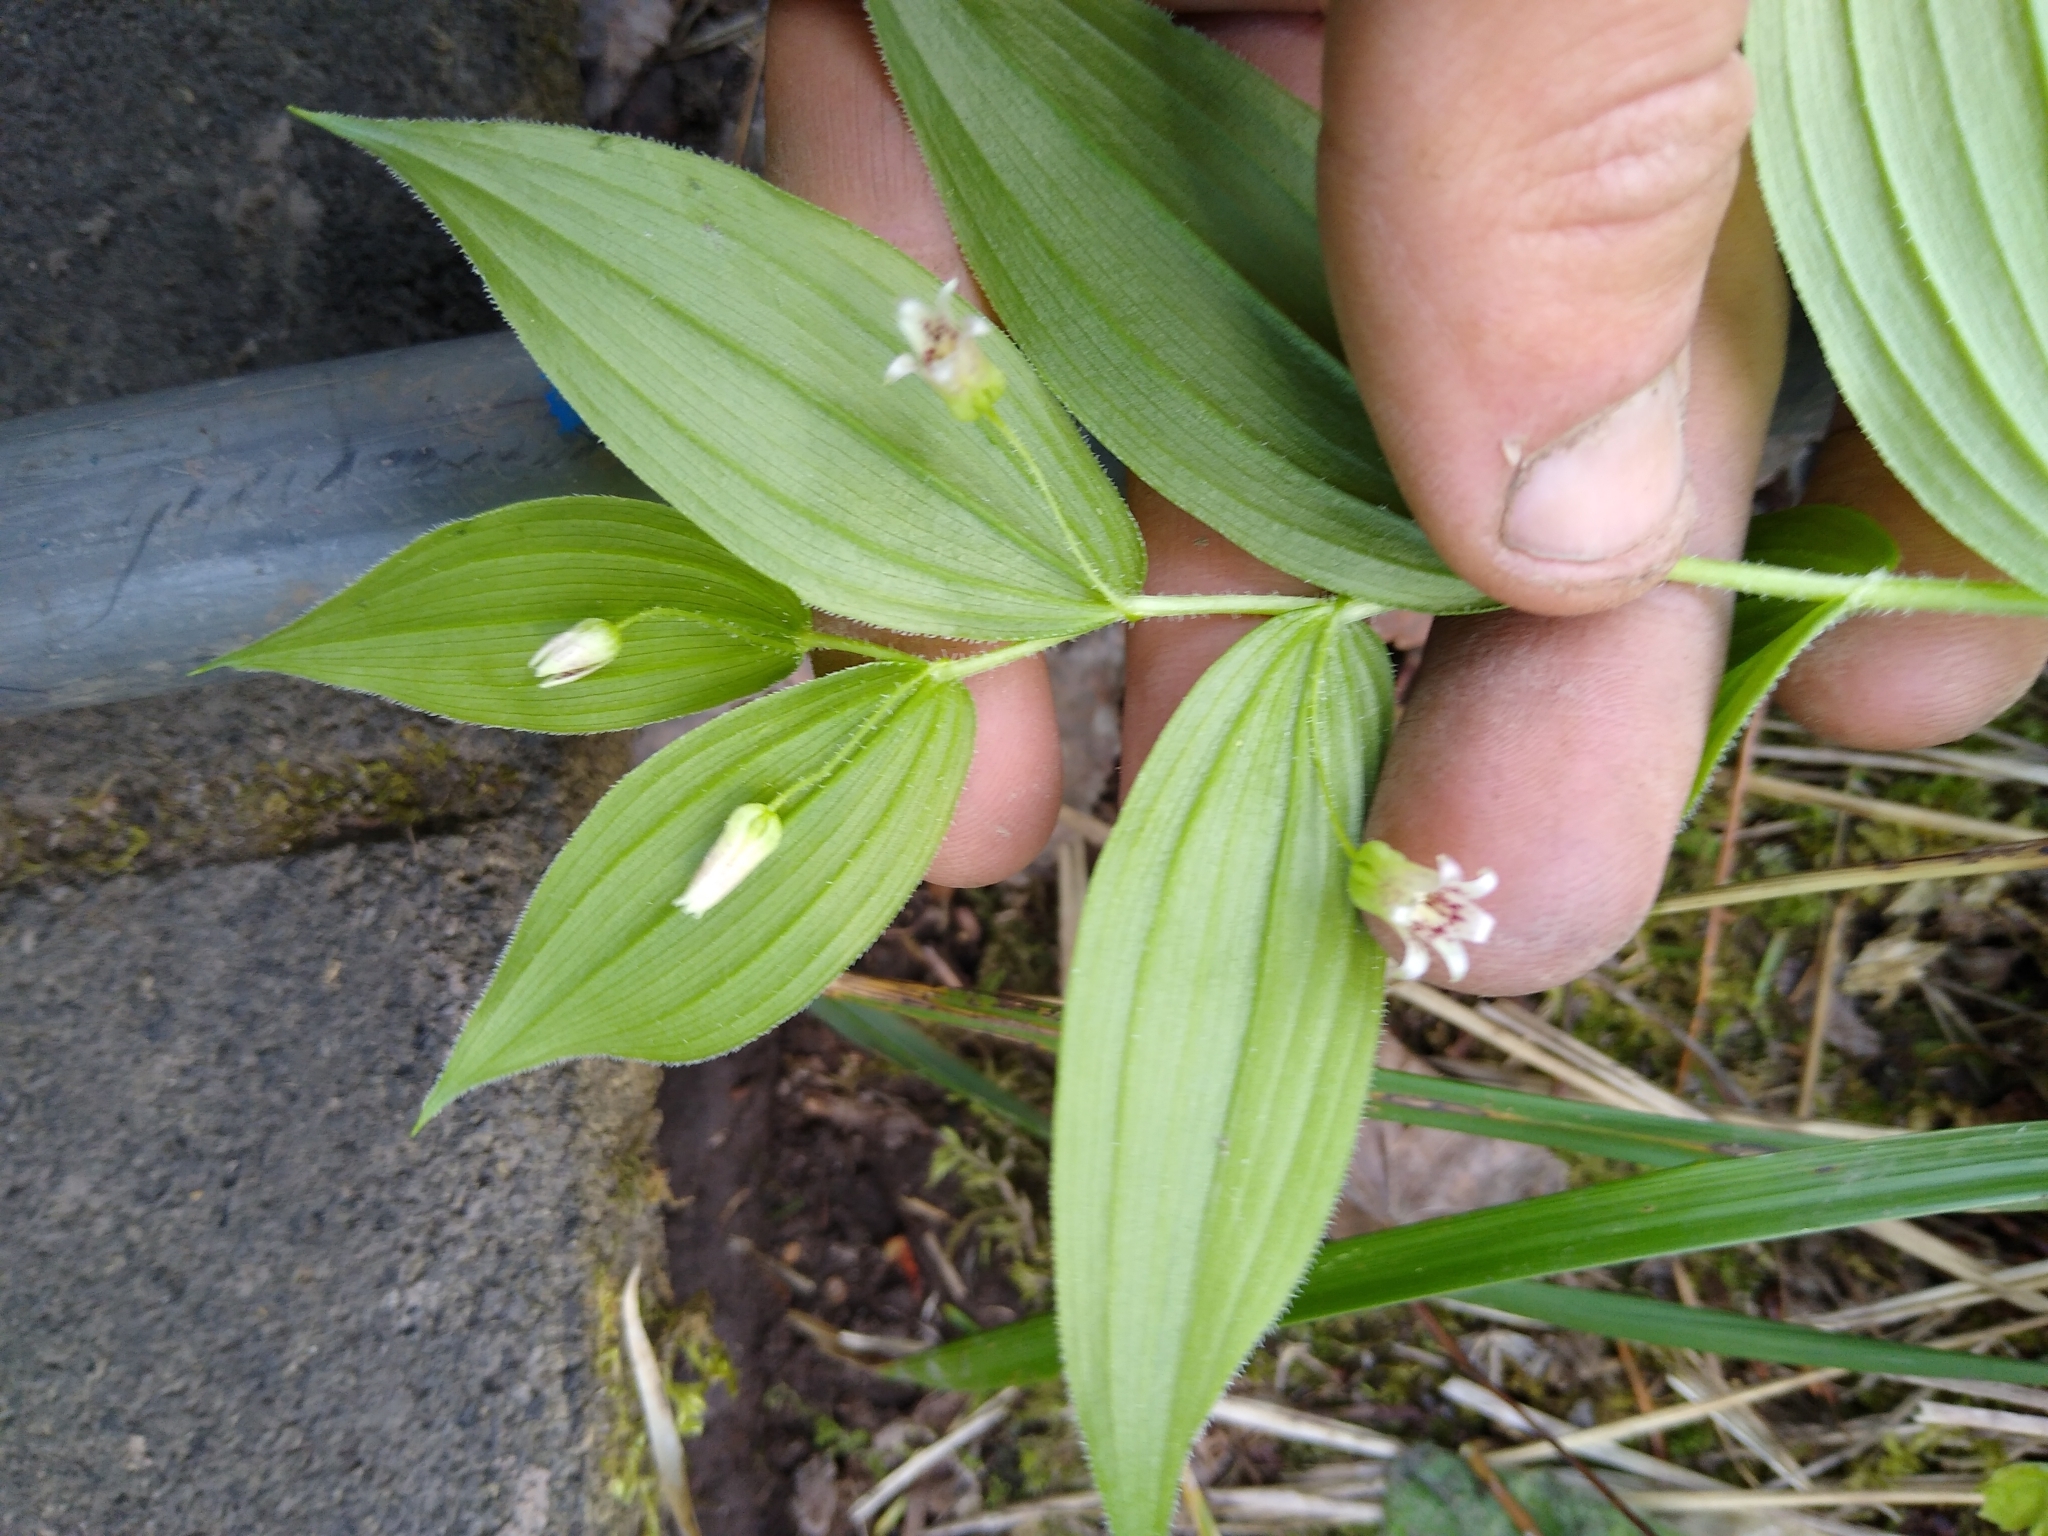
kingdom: Plantae
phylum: Tracheophyta
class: Liliopsida
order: Liliales
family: Liliaceae
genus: Streptopus
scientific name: Streptopus lanceolatus
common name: Rose mandarin
